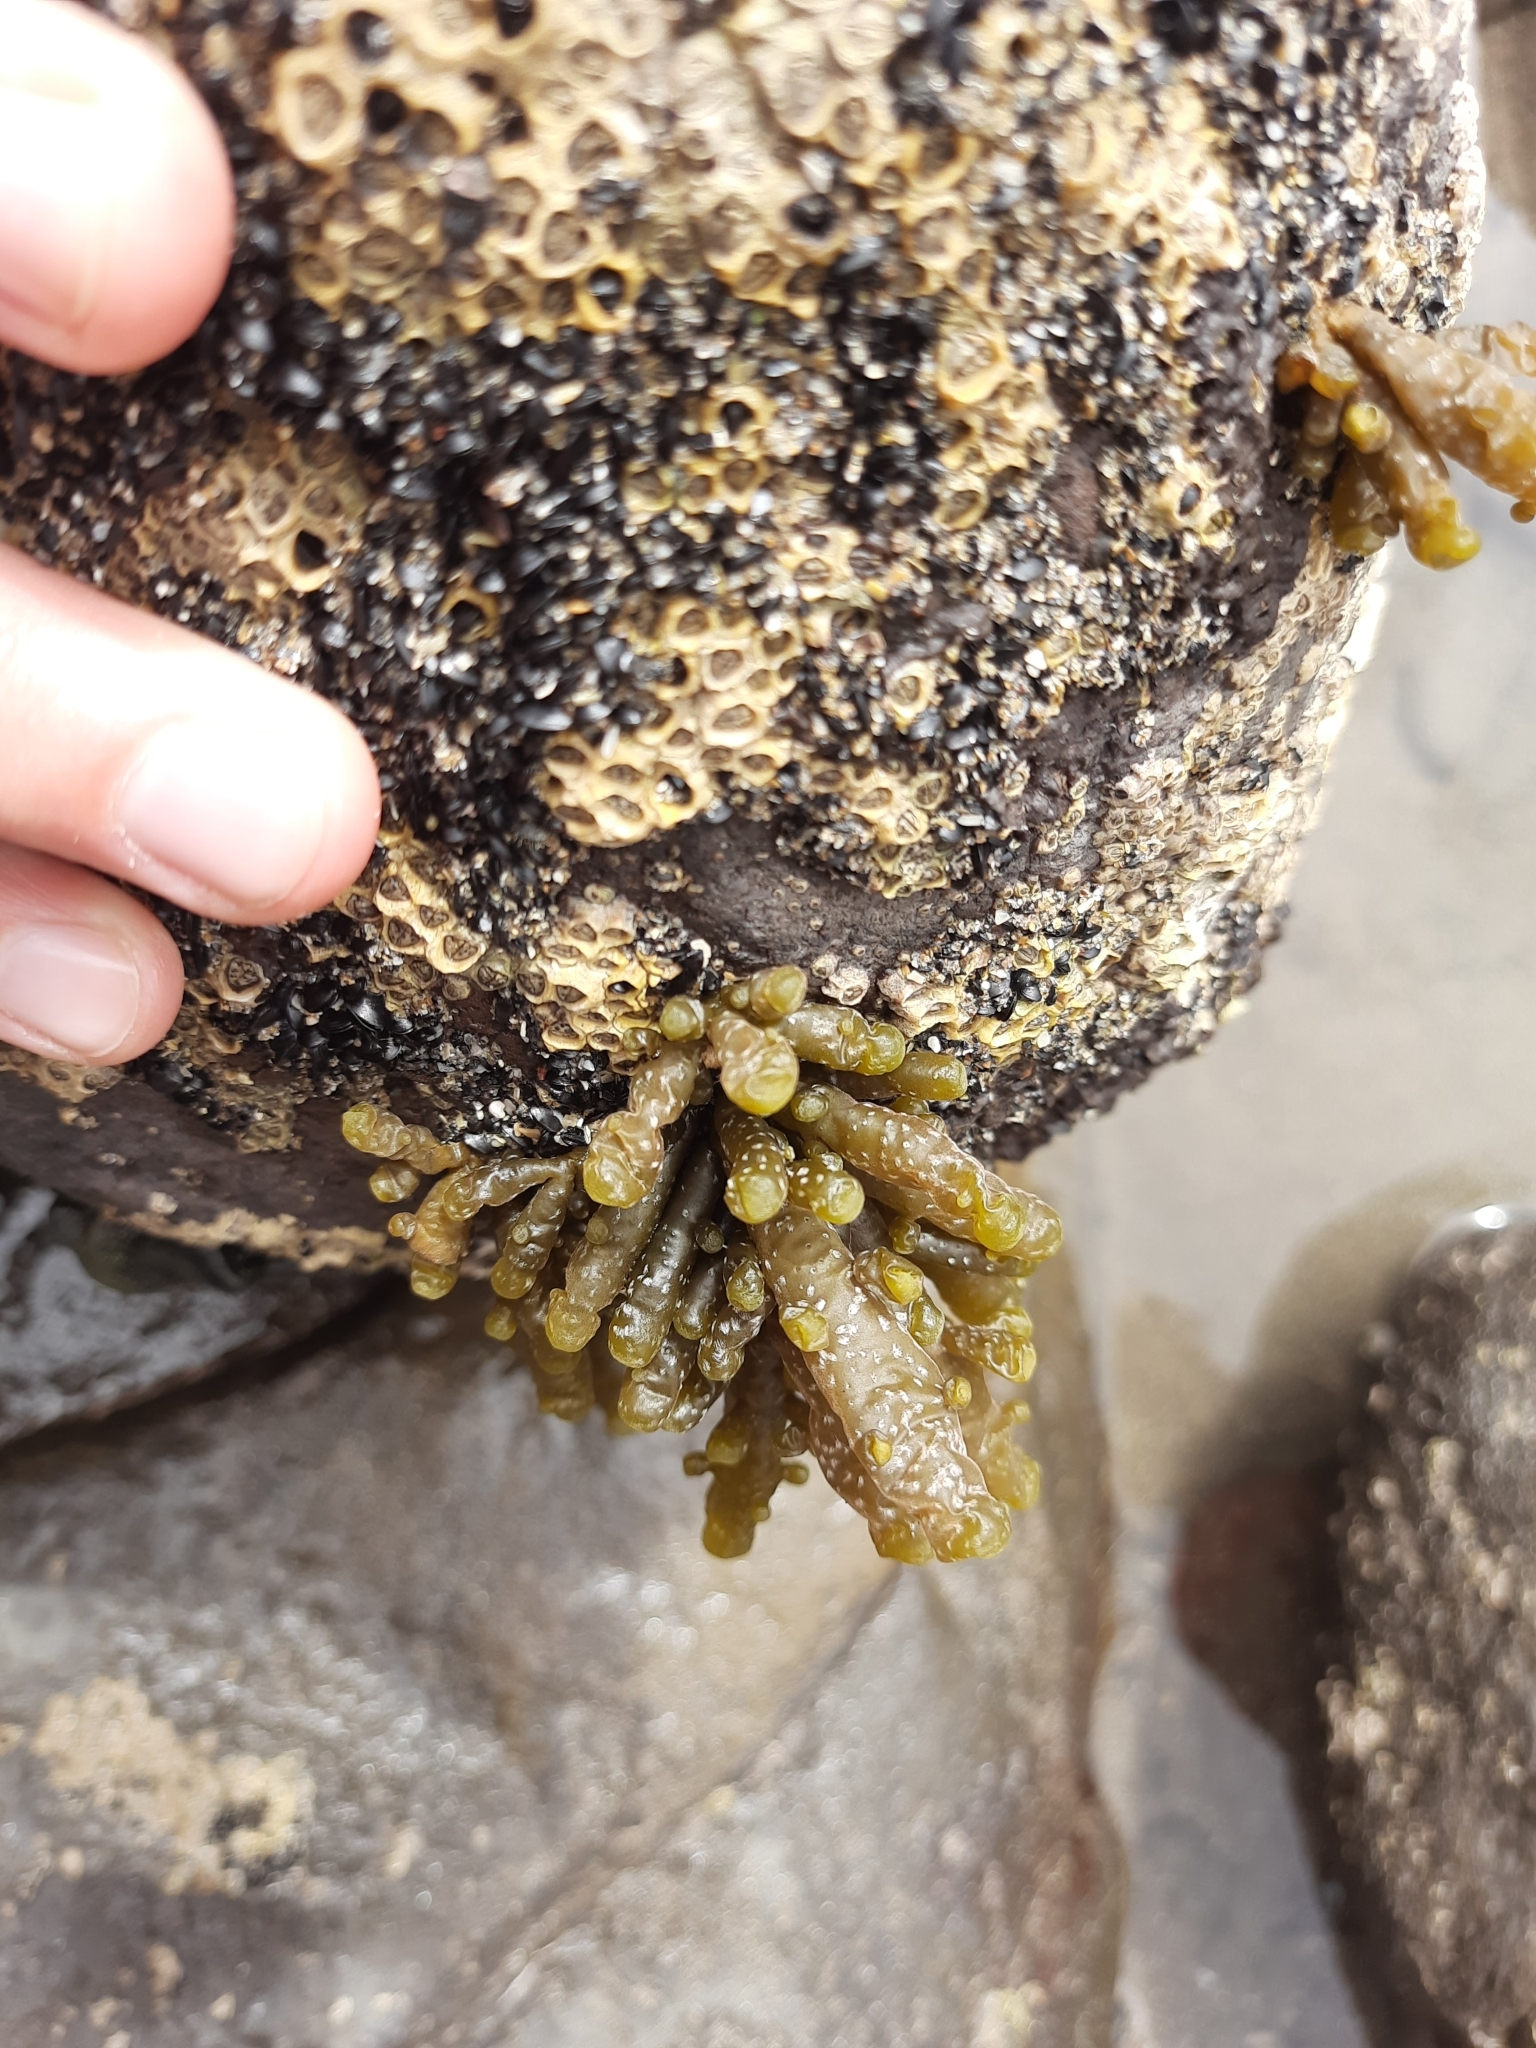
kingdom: Chromista
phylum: Ochrophyta
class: Phaeophyceae
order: Scytothamnales
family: Splachnidiaceae
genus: Splachnidium
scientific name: Splachnidium rugosum
